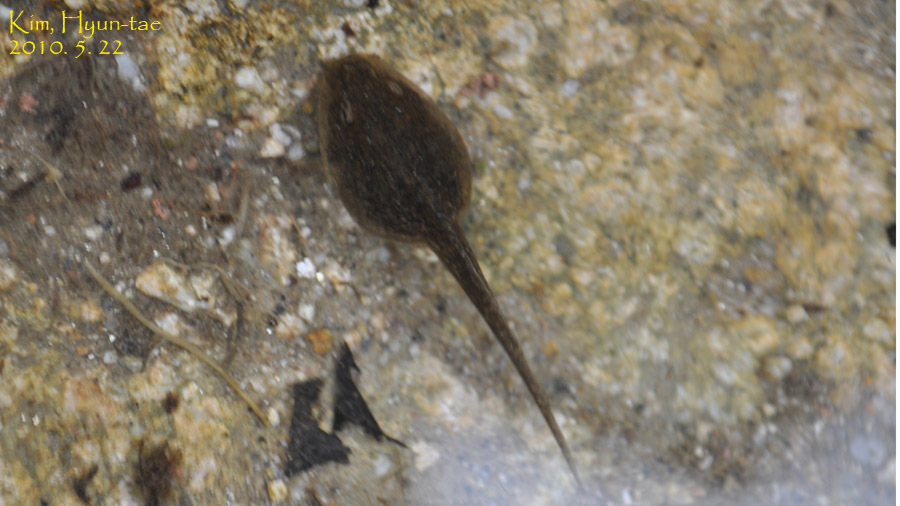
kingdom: Animalia
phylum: Chordata
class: Amphibia
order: Anura
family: Ranidae
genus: Rana
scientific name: Rana huanrenensis
